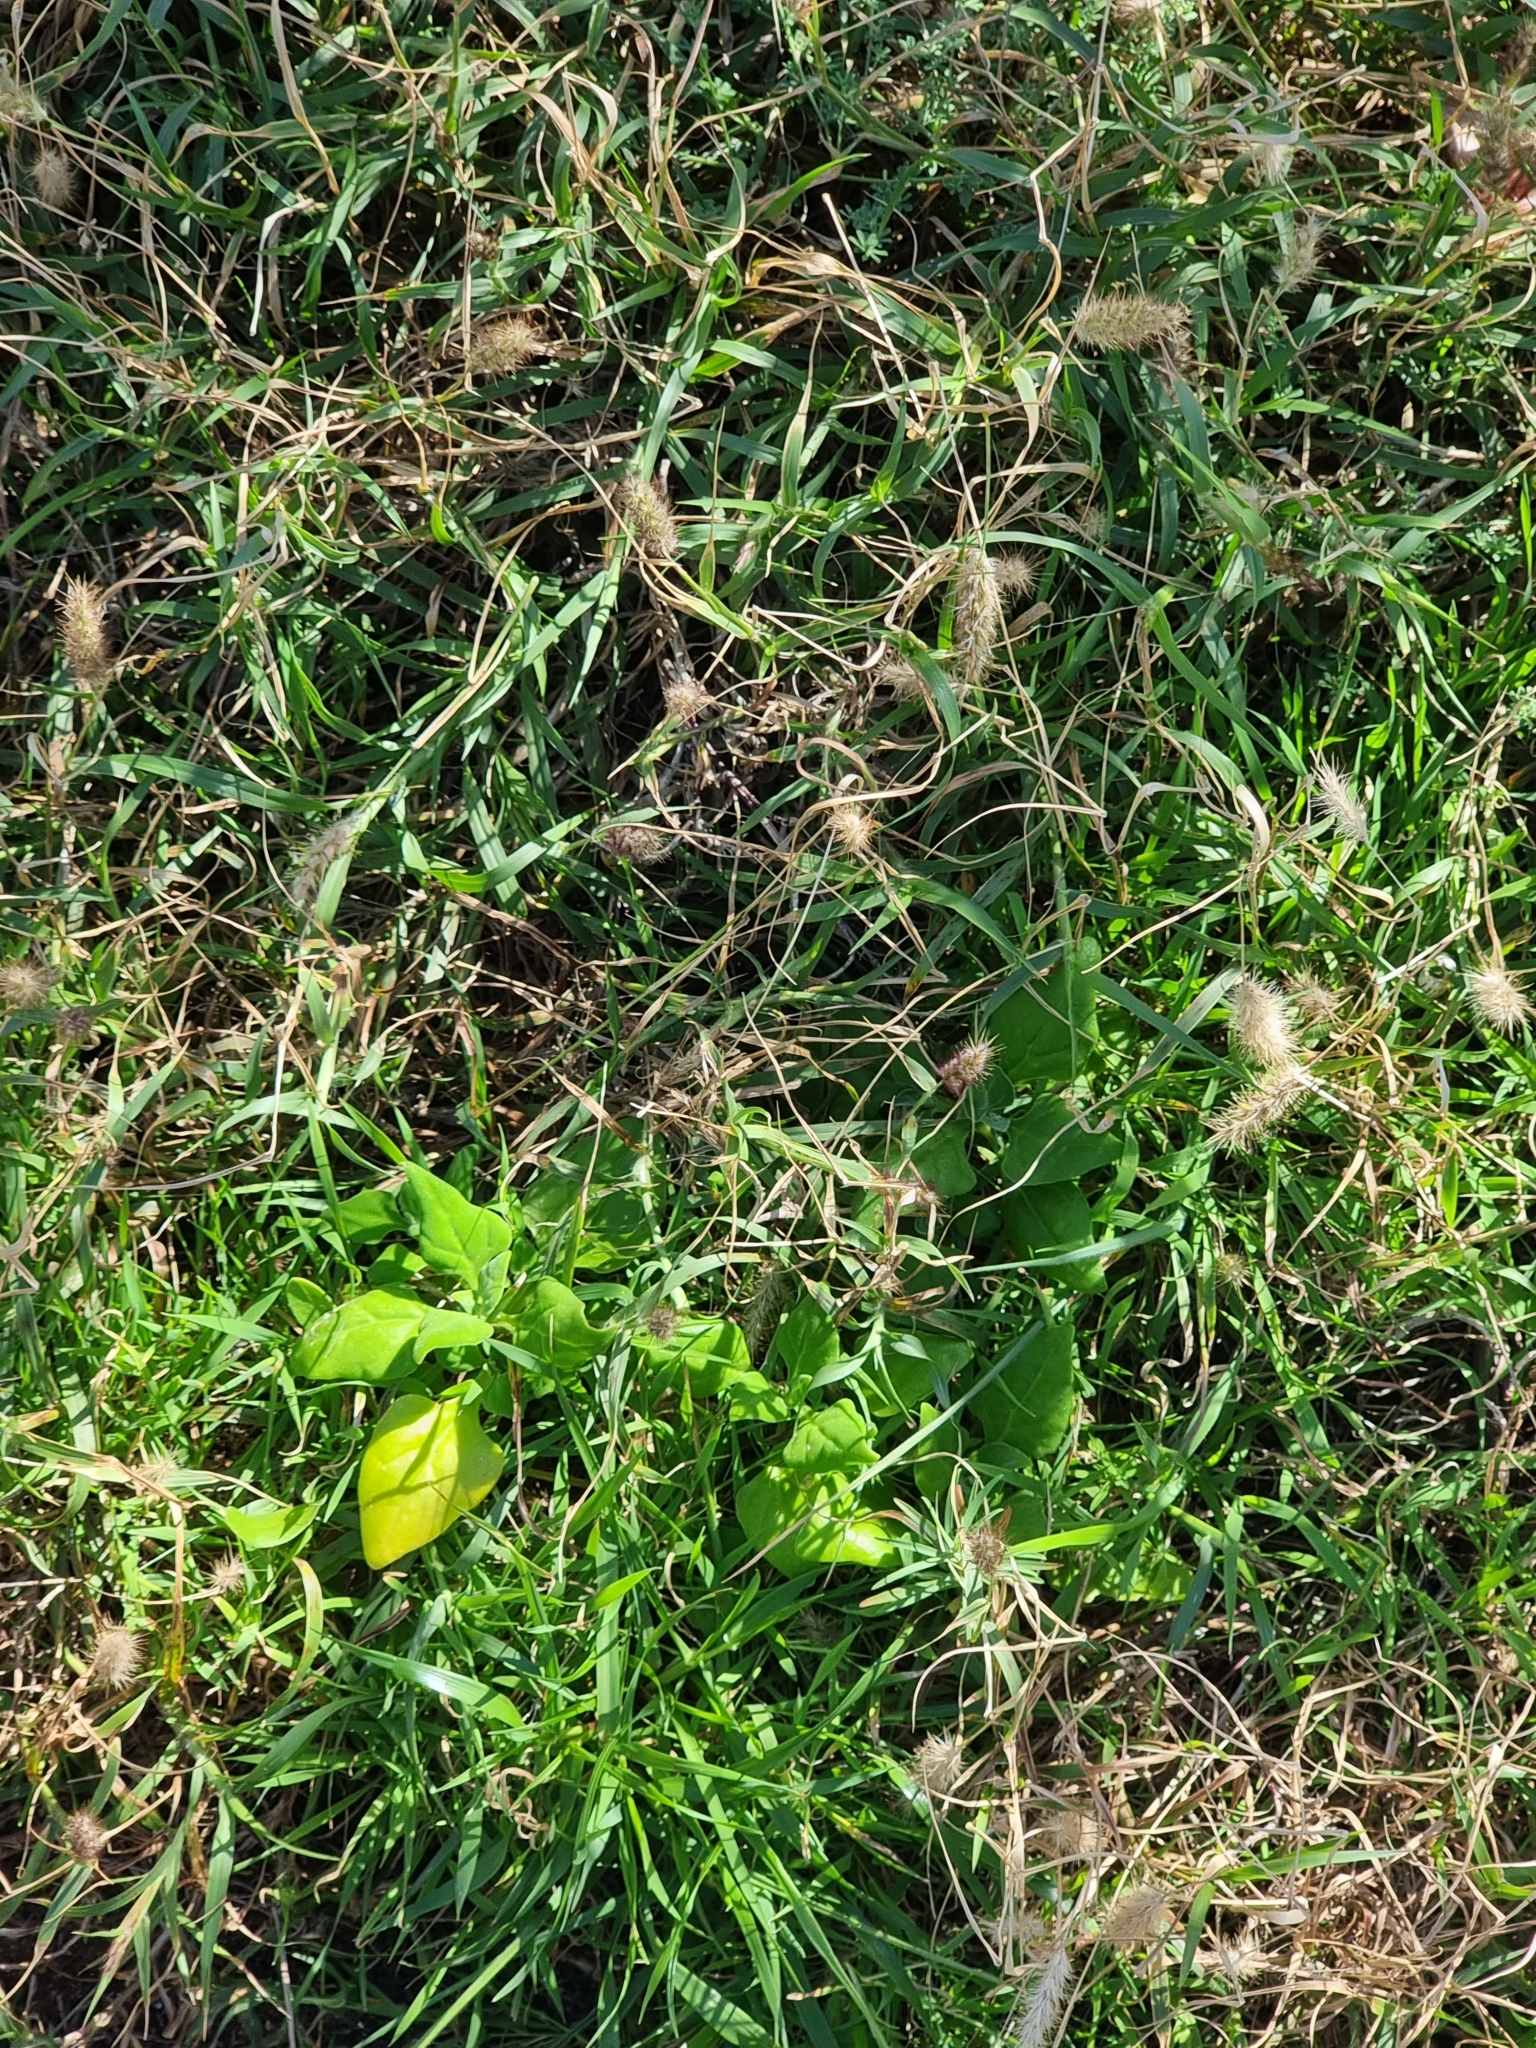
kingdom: Plantae
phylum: Tracheophyta
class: Magnoliopsida
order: Caryophyllales
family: Aizoaceae
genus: Tetragonia
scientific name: Tetragonia tetragonoides
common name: New zealand-spinach
